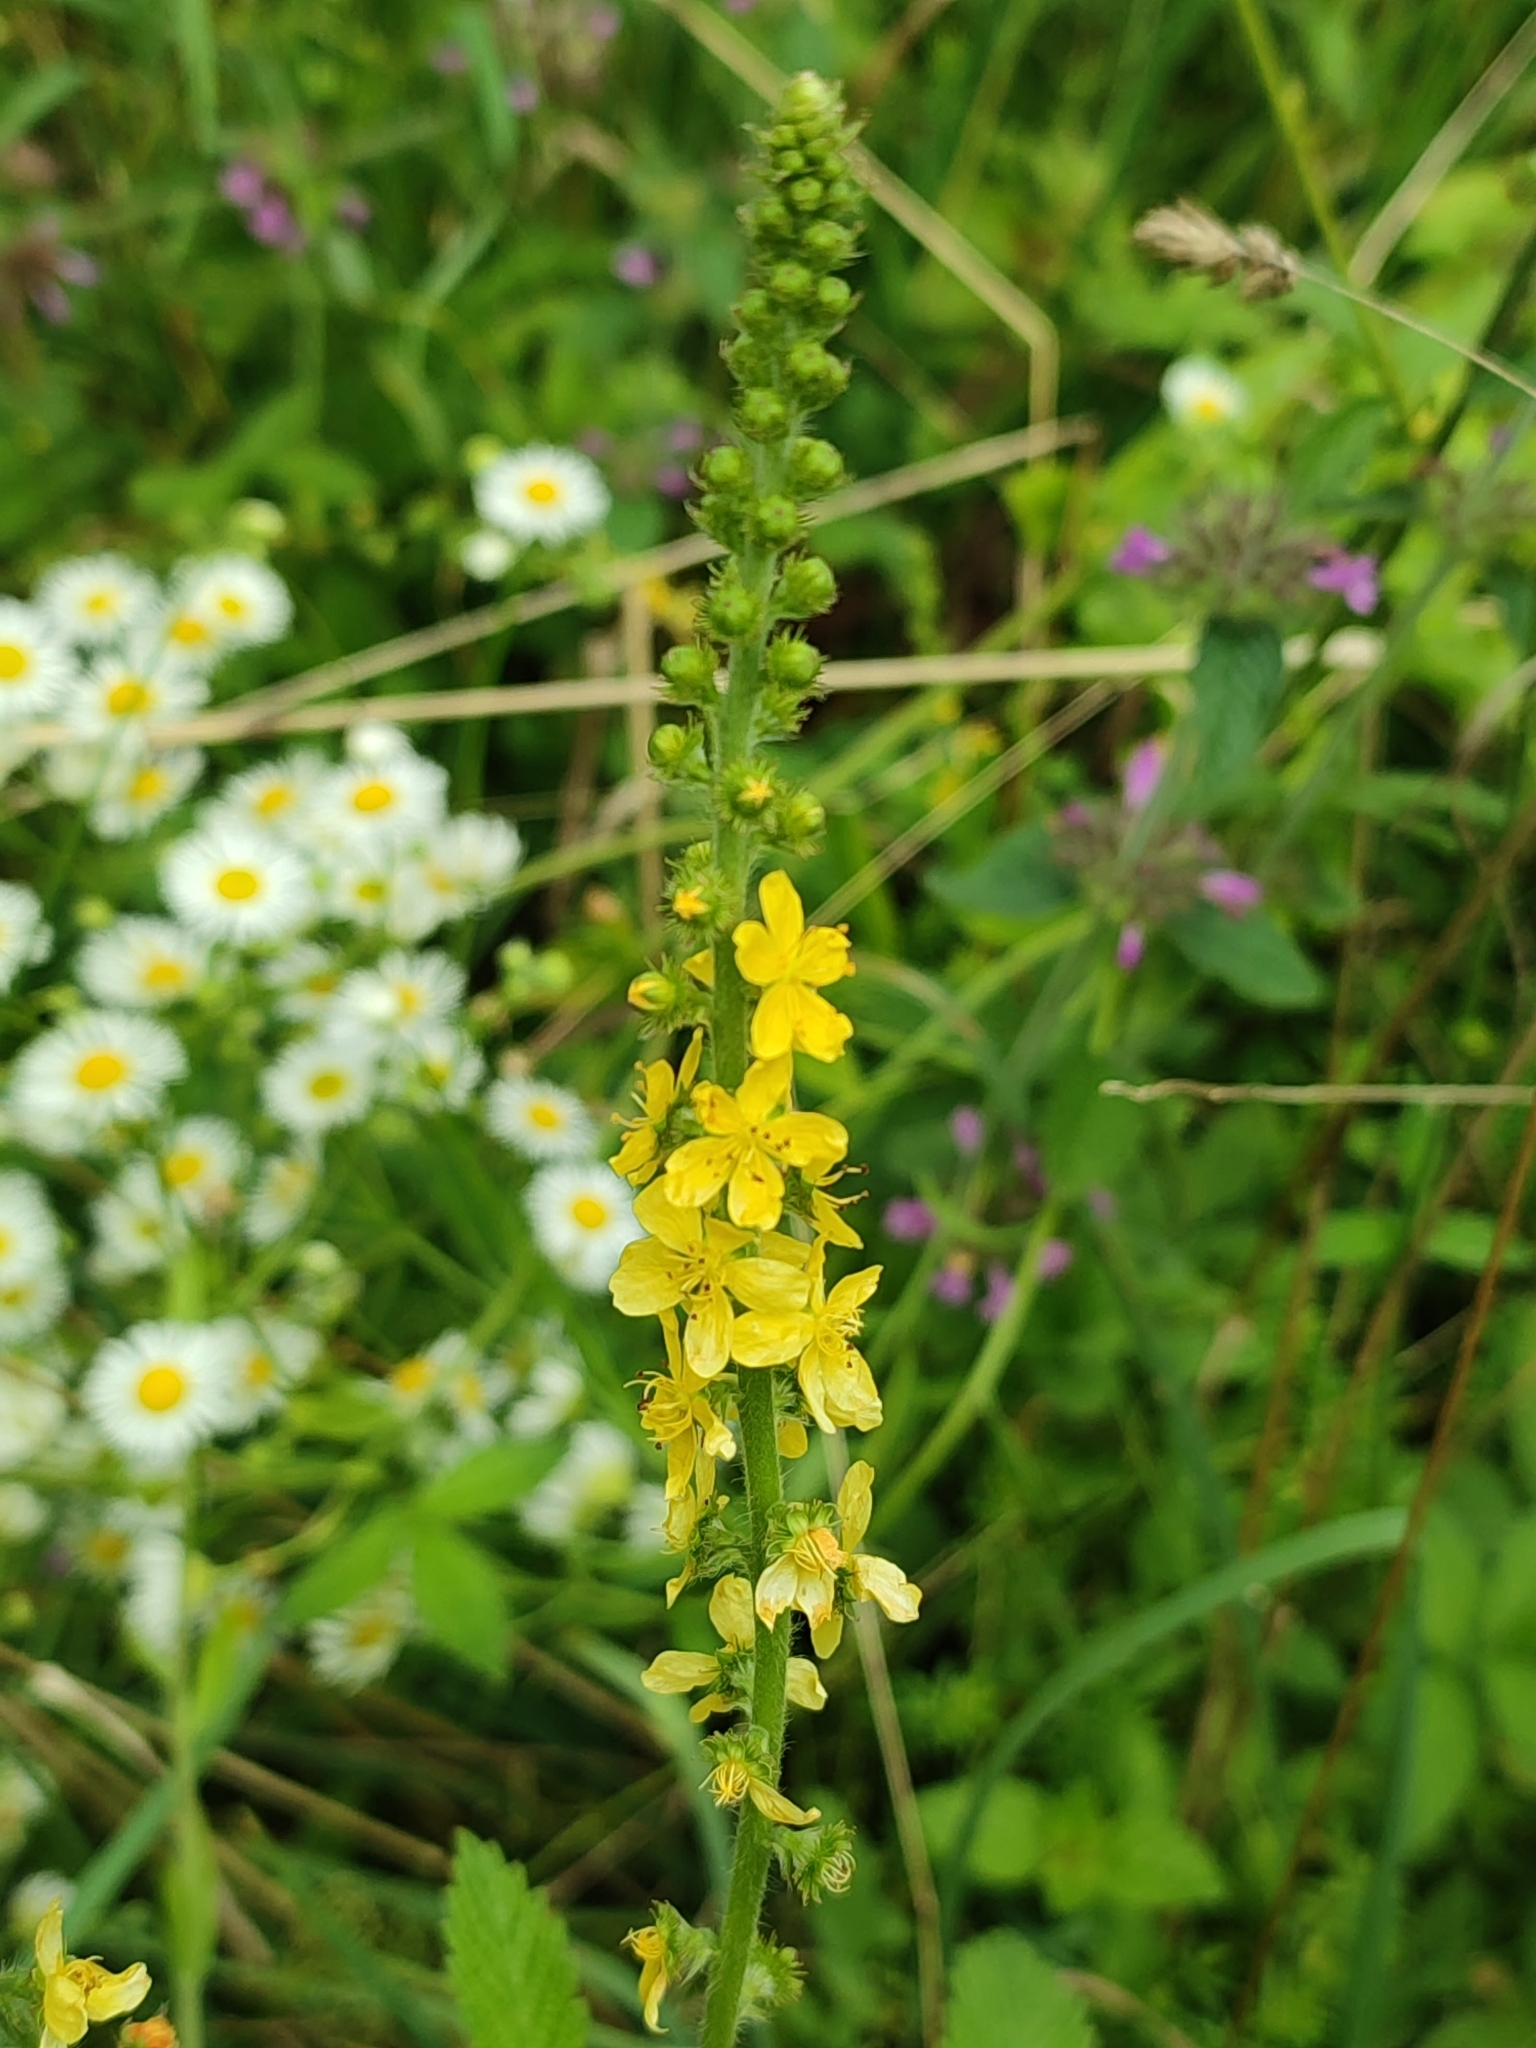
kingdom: Plantae
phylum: Tracheophyta
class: Magnoliopsida
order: Rosales
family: Rosaceae
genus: Agrimonia
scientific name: Agrimonia eupatoria
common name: Agrimony
